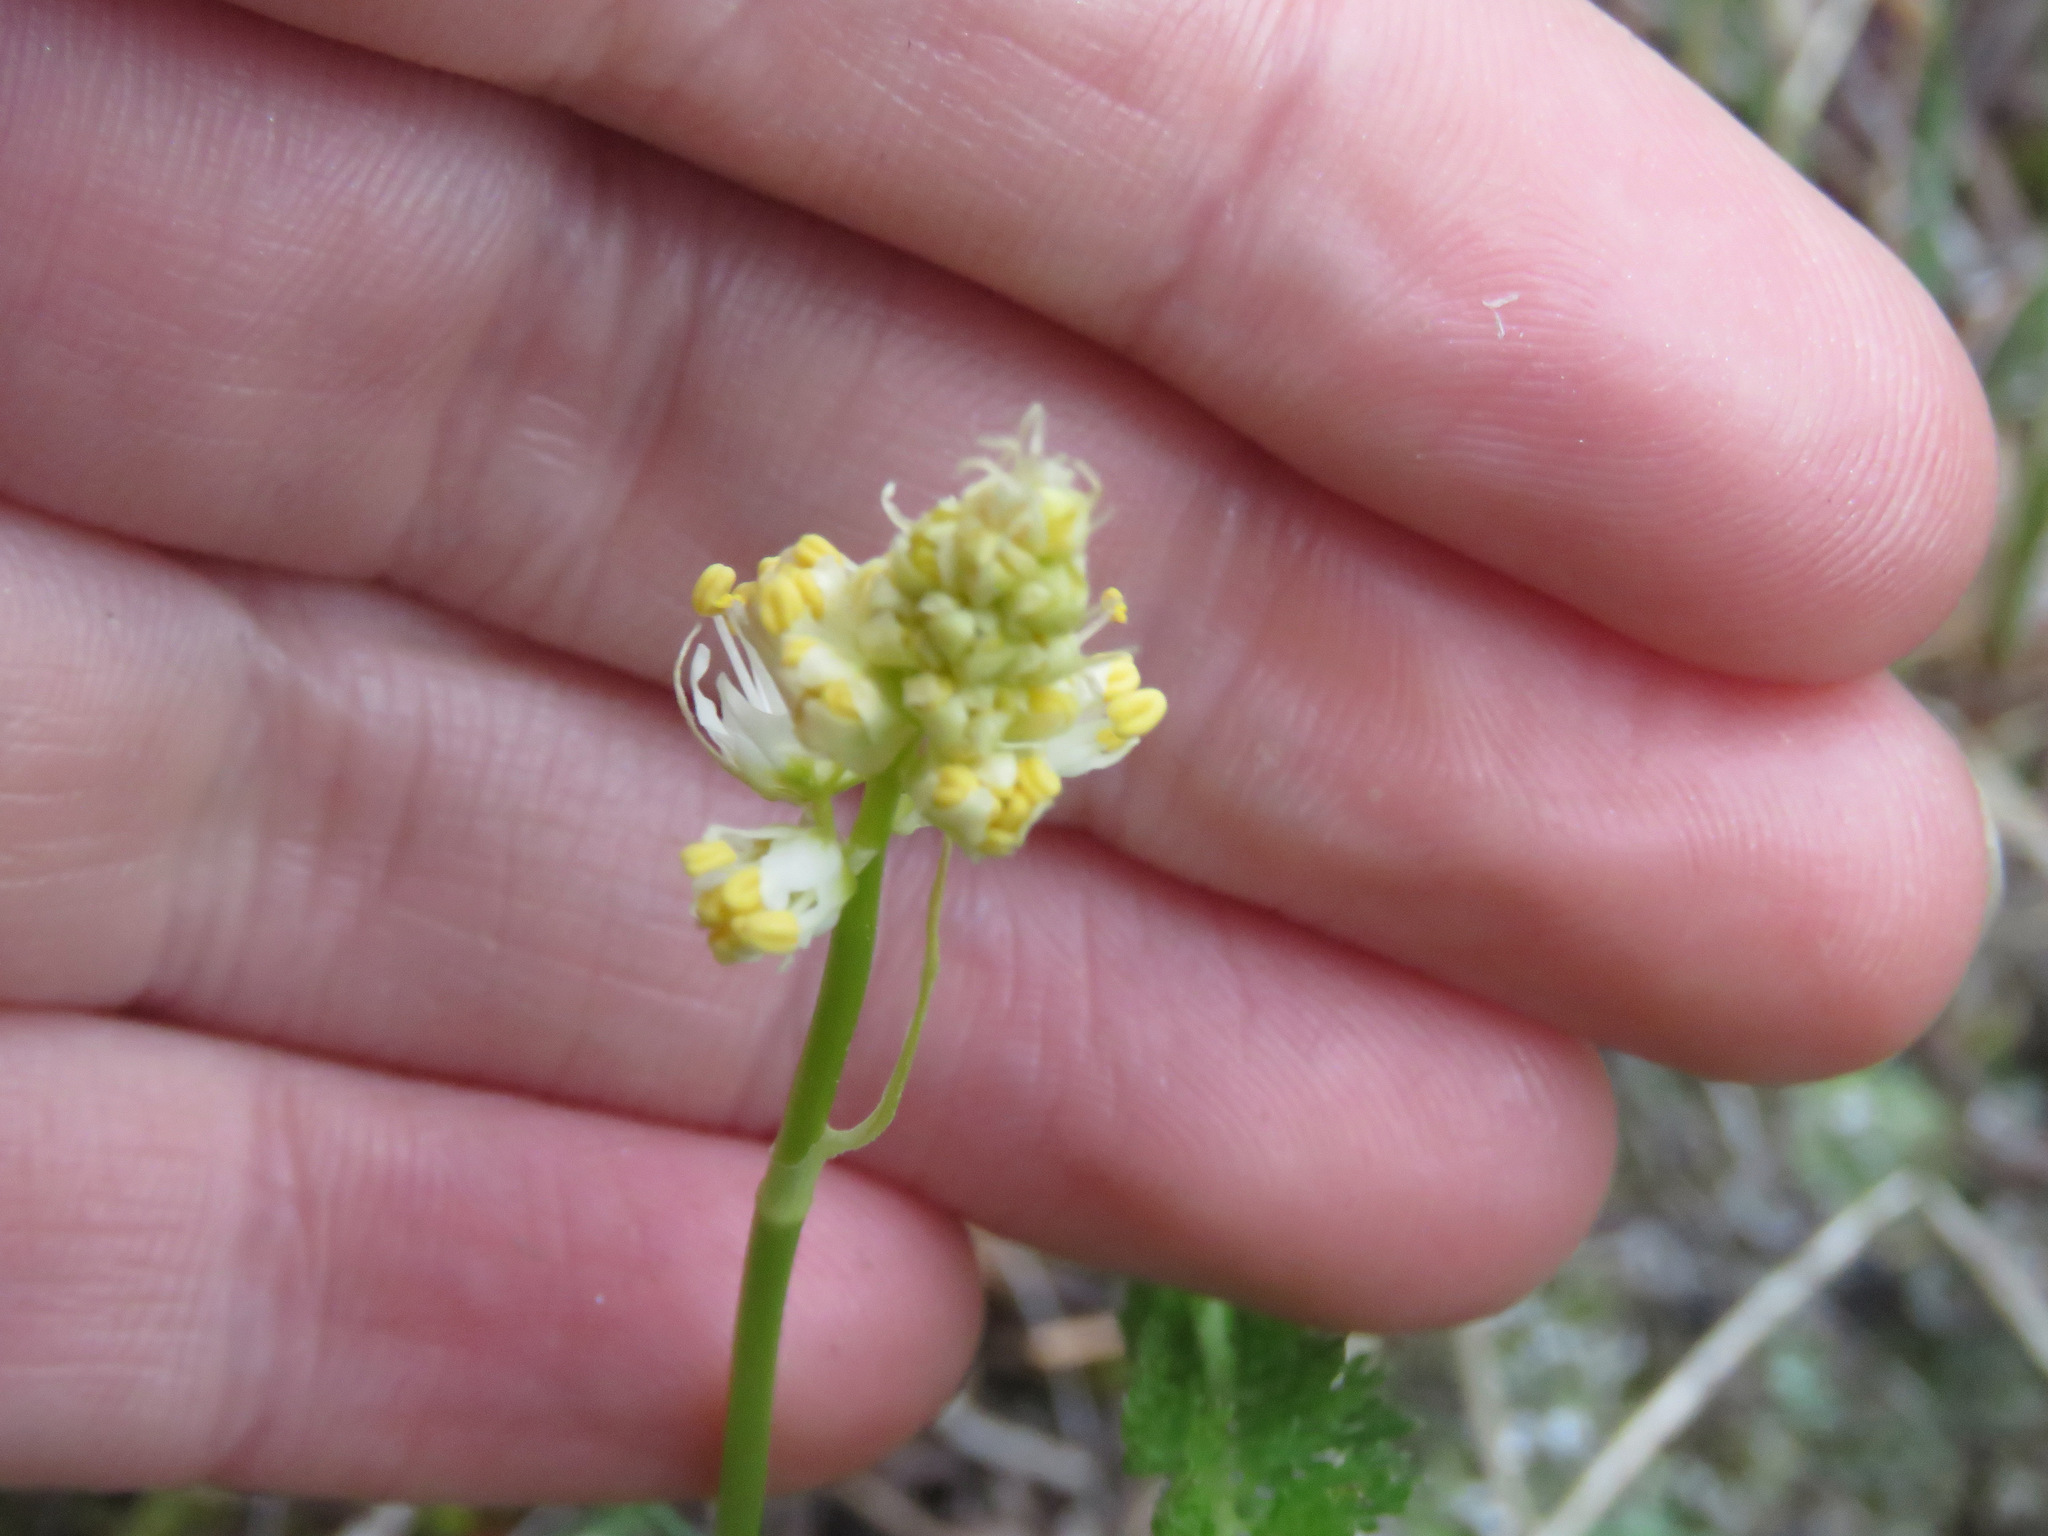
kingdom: Plantae
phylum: Tracheophyta
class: Liliopsida
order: Liliales
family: Melanthiaceae
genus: Toxicoscordion
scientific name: Toxicoscordion venenosum
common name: Meadow death camas
